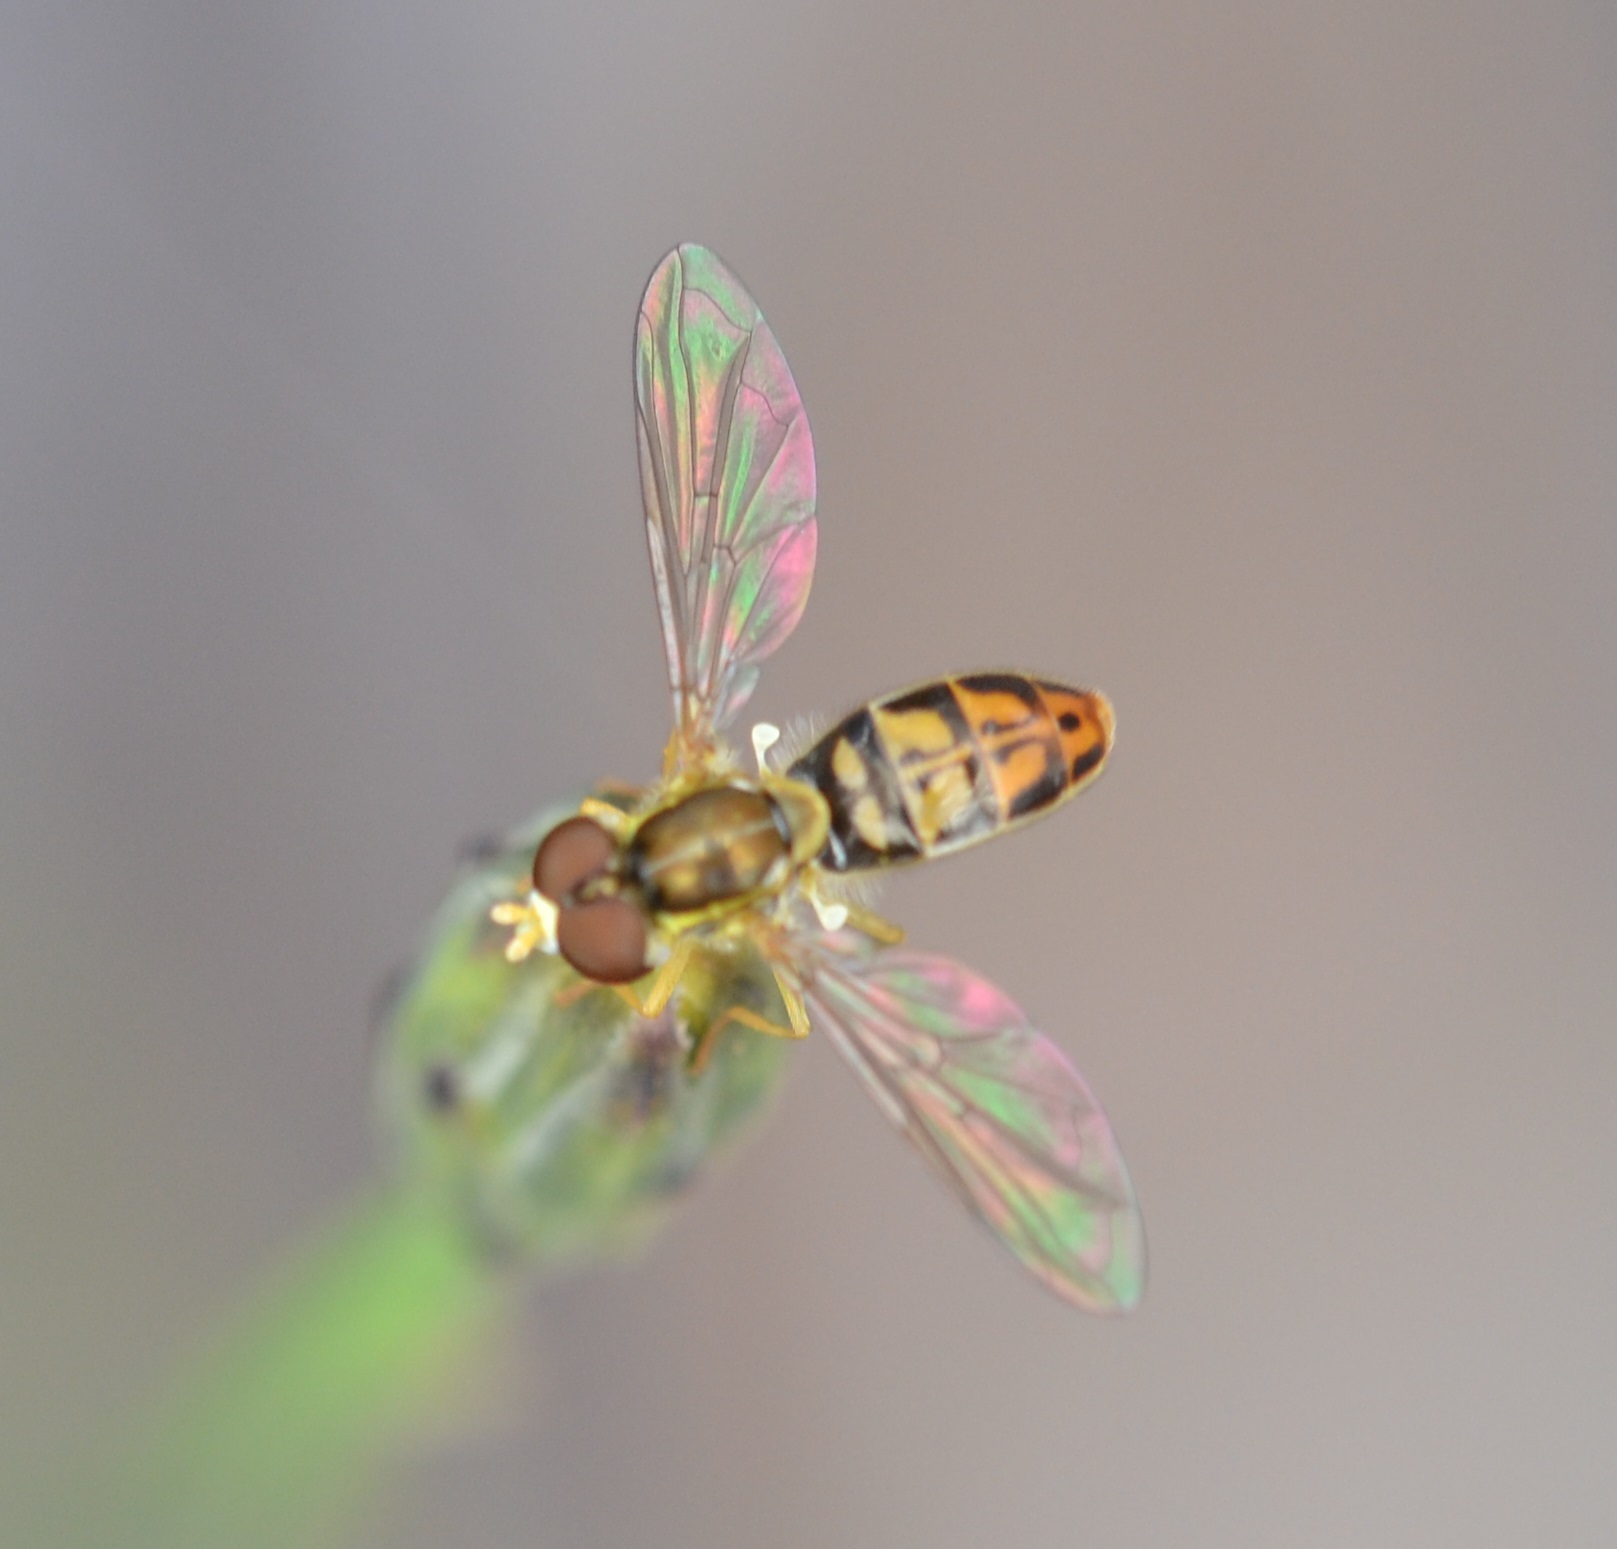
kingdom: Animalia
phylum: Arthropoda
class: Insecta
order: Diptera
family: Syrphidae
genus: Toxomerus
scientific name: Toxomerus marginatus
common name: Syrphid fly
